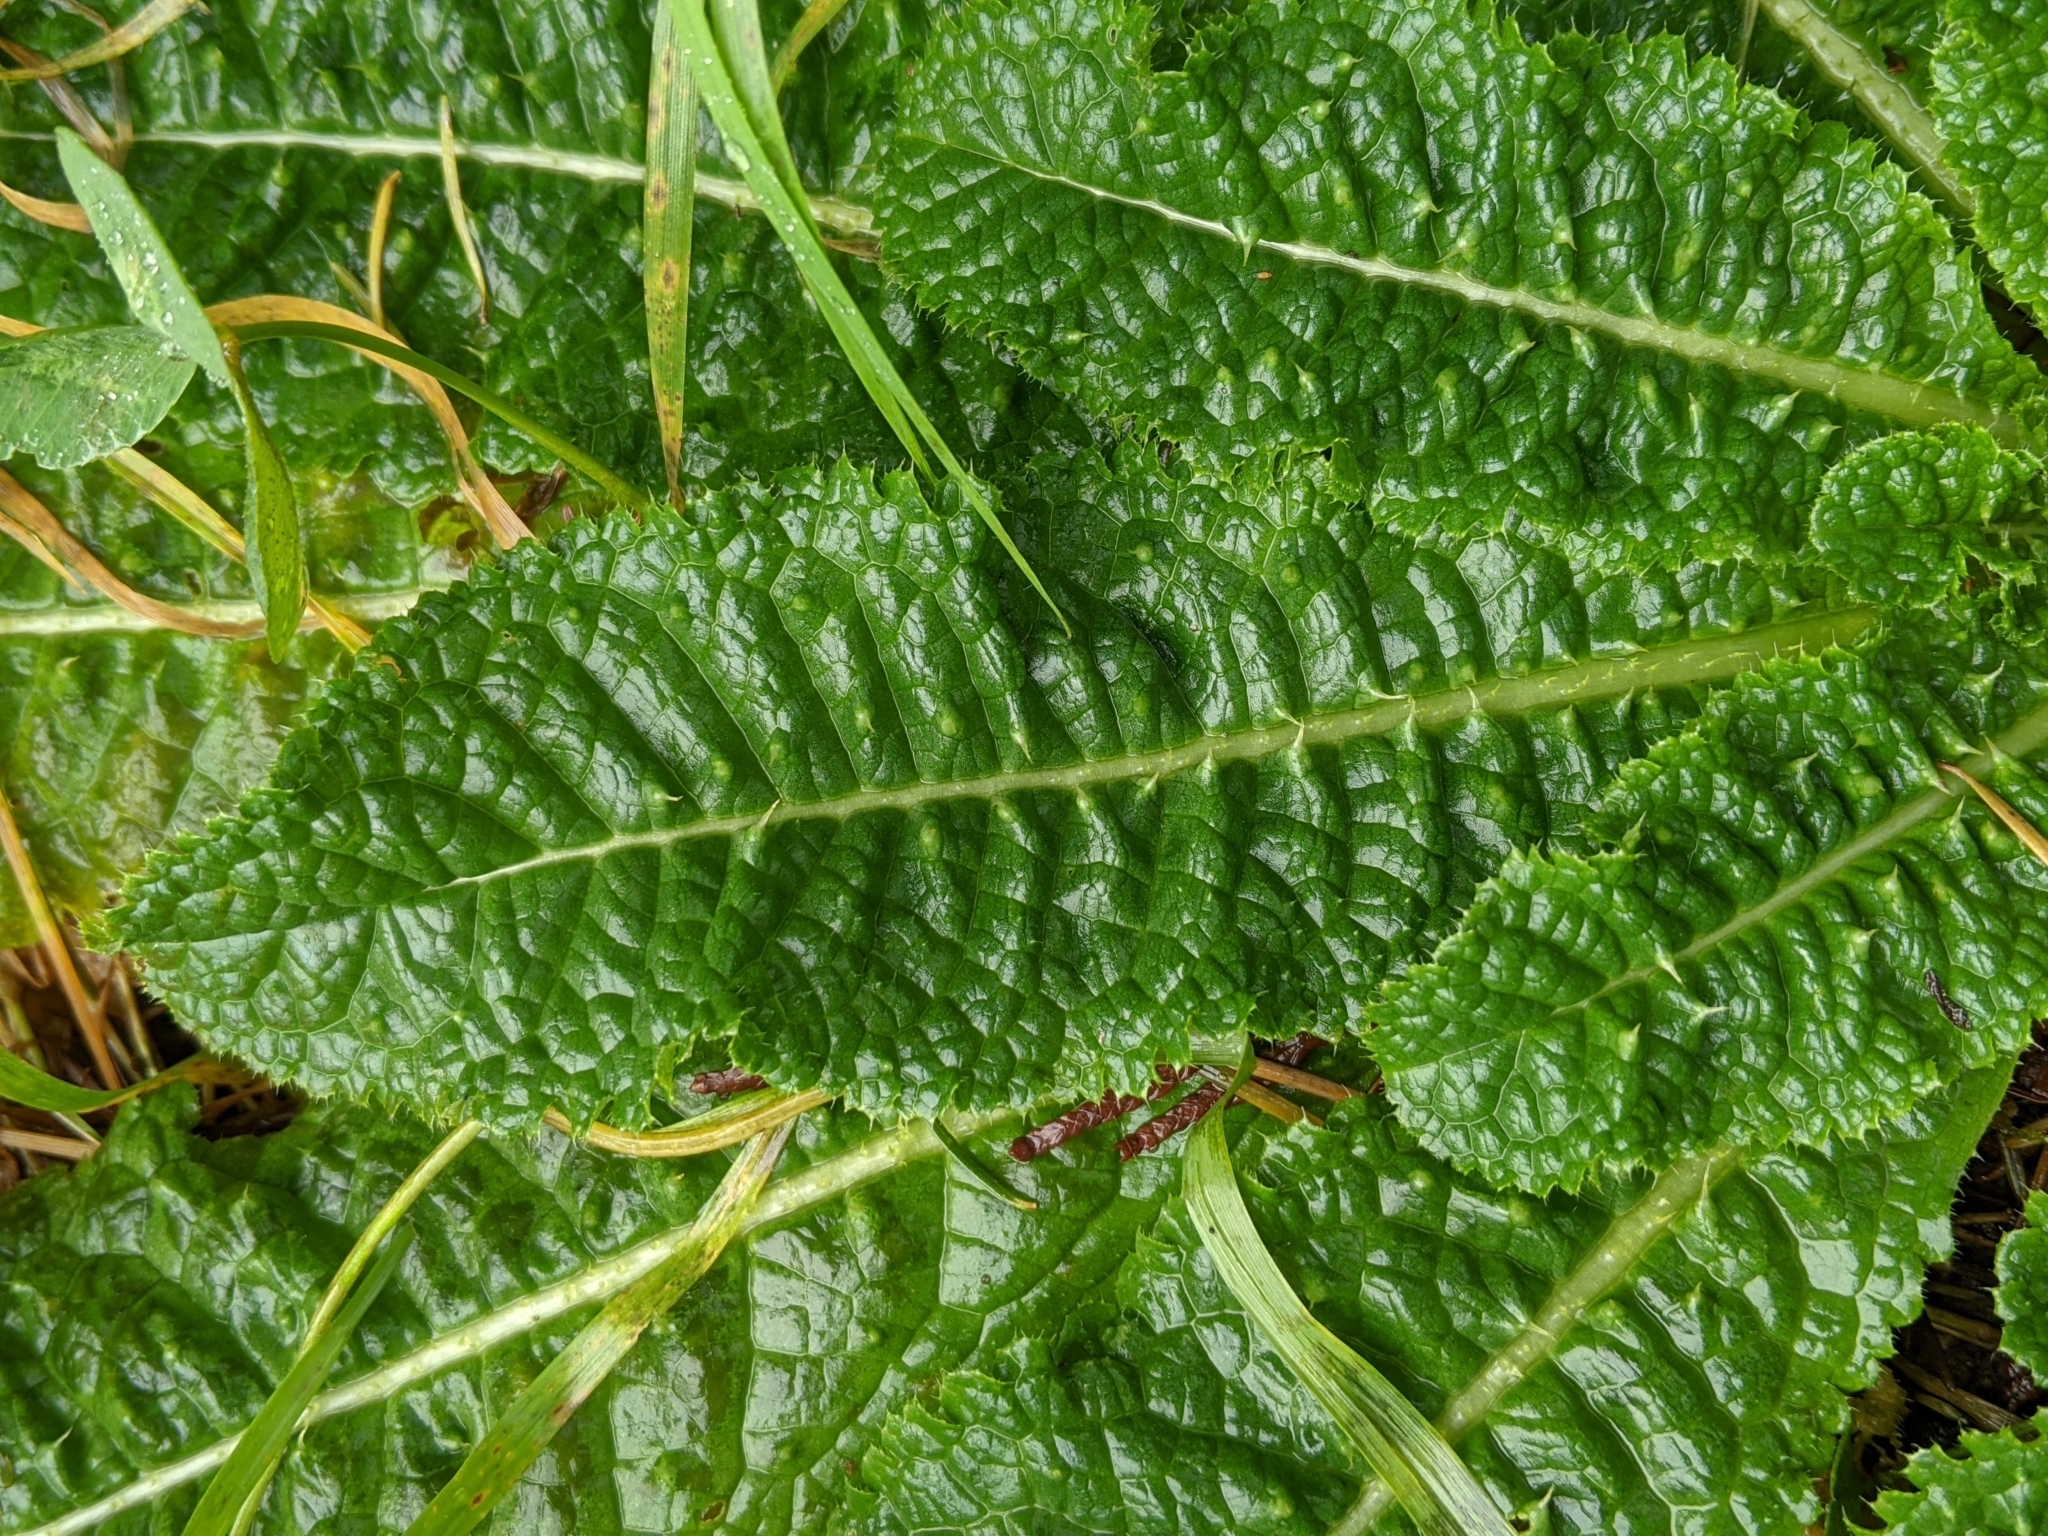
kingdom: Plantae
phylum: Tracheophyta
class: Magnoliopsida
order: Dipsacales
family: Caprifoliaceae
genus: Dipsacus
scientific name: Dipsacus fullonum
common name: Teasel
